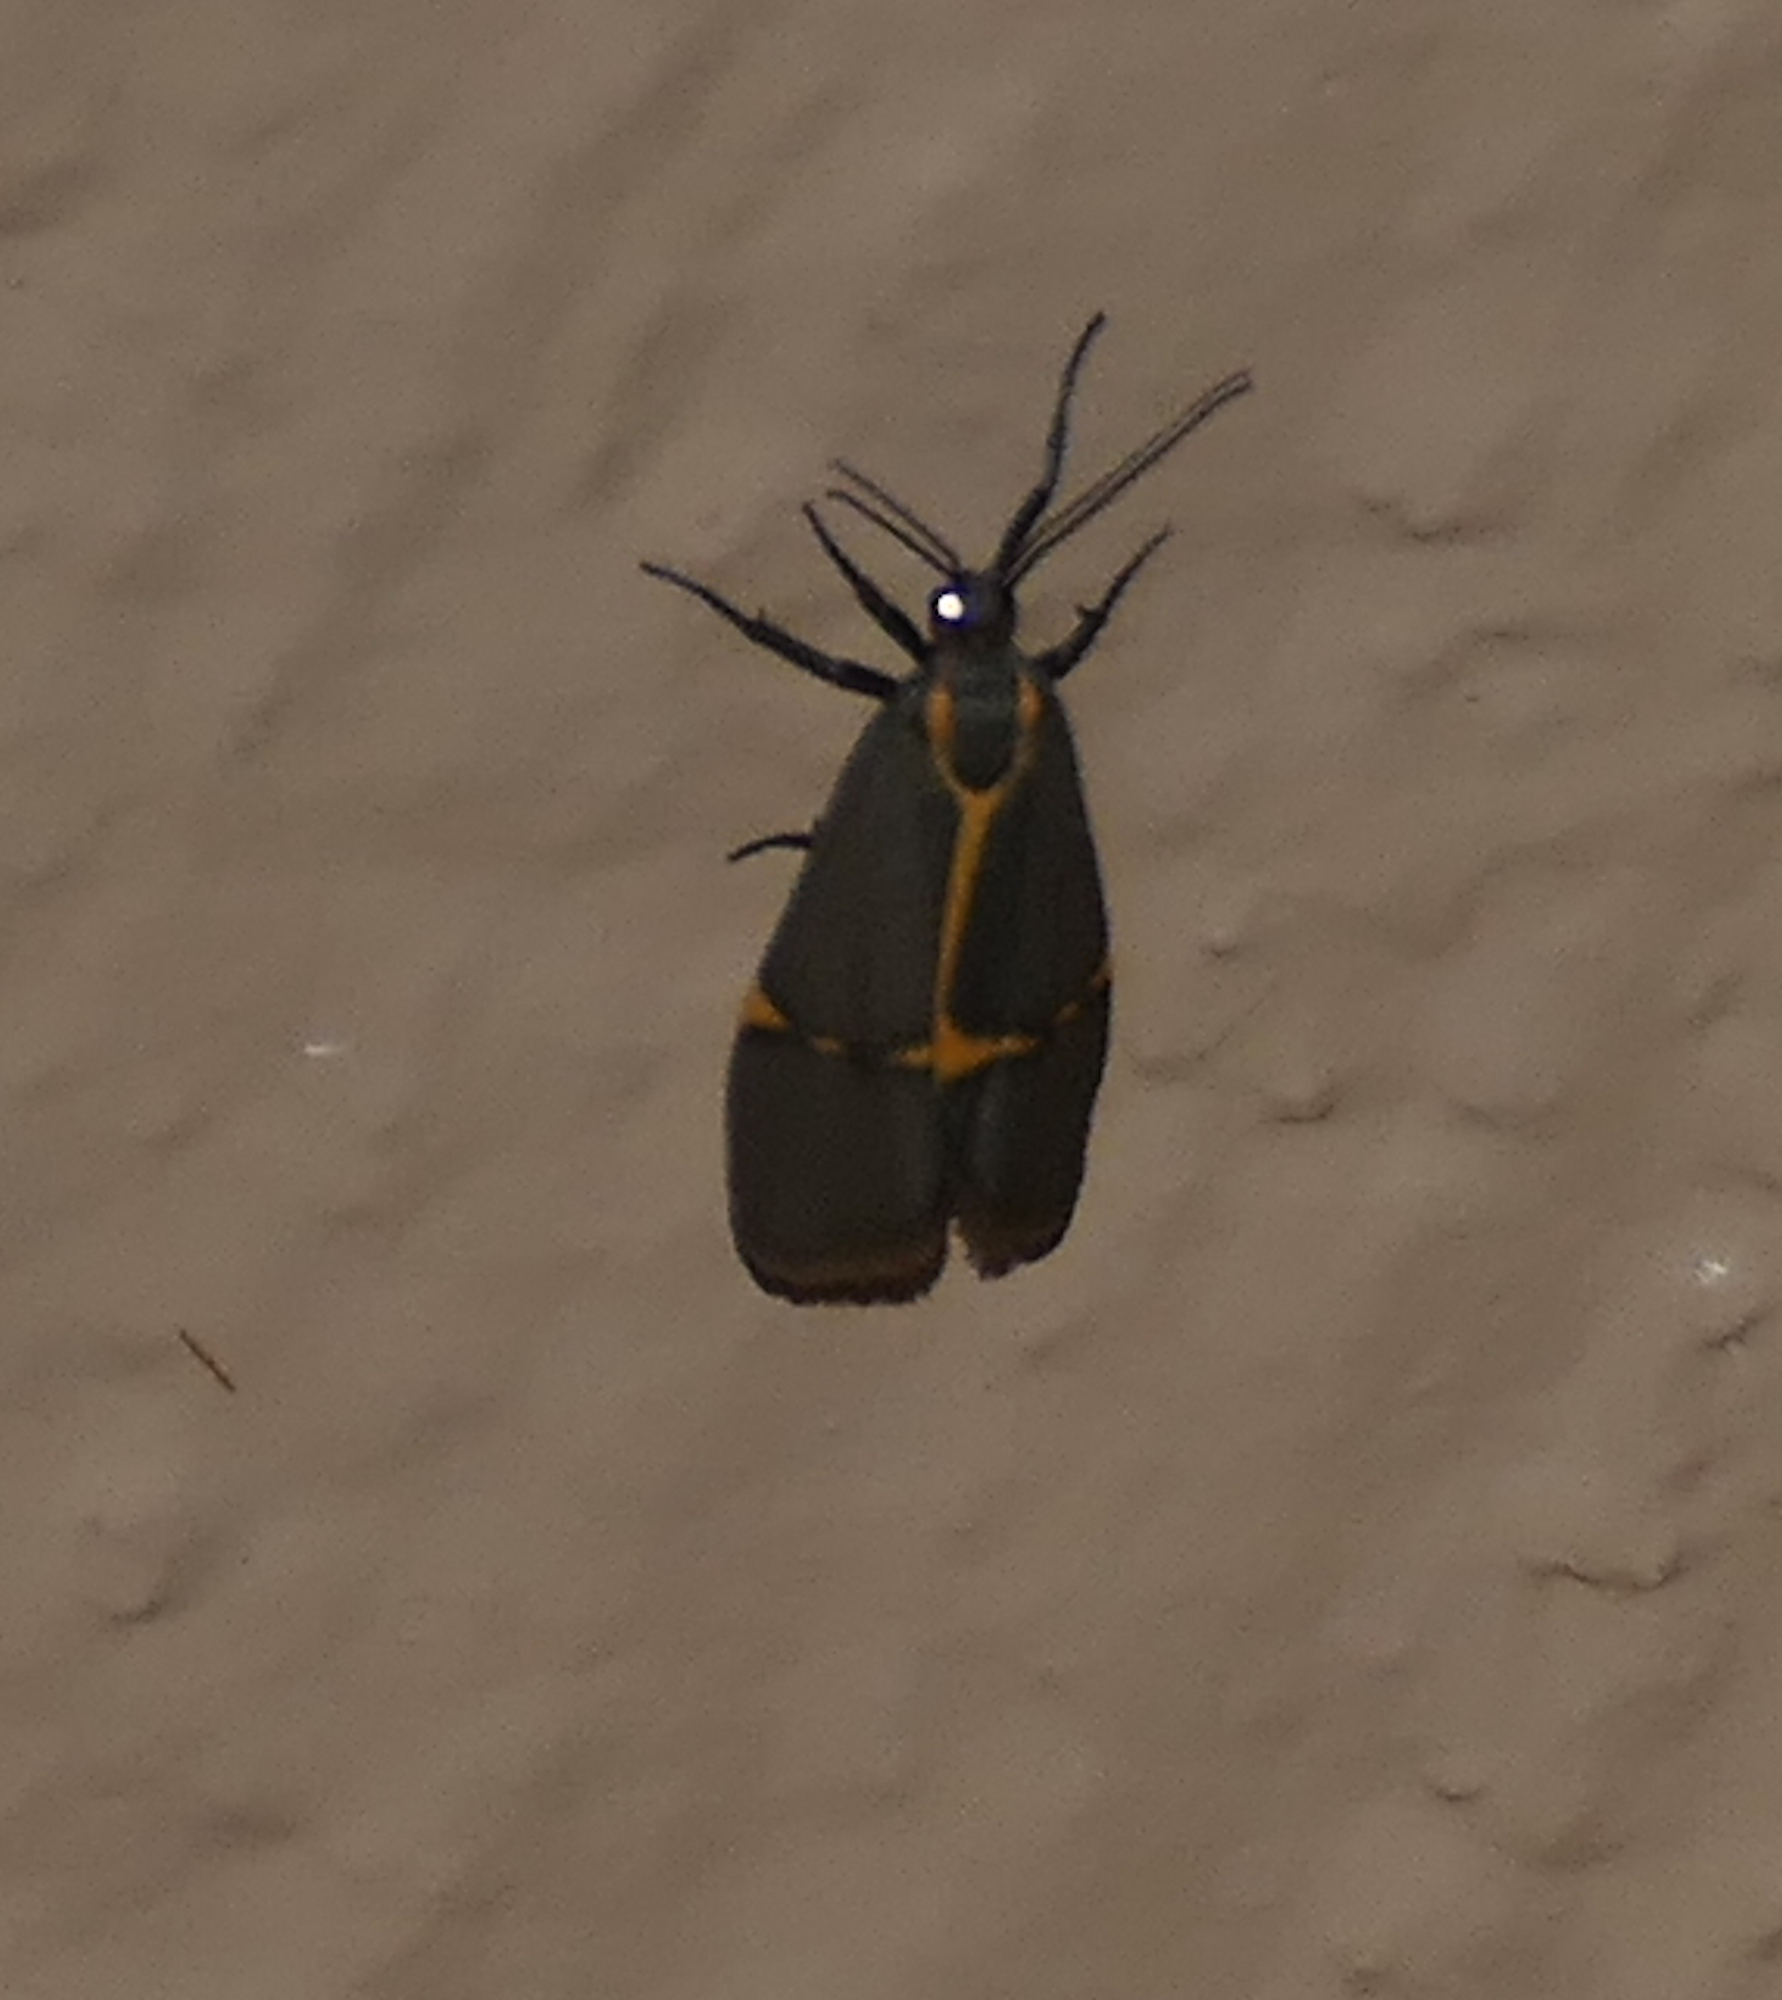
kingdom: Animalia
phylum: Arthropoda
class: Insecta
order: Lepidoptera
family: Erebidae
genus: Cisthene
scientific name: Cisthene barnesii
